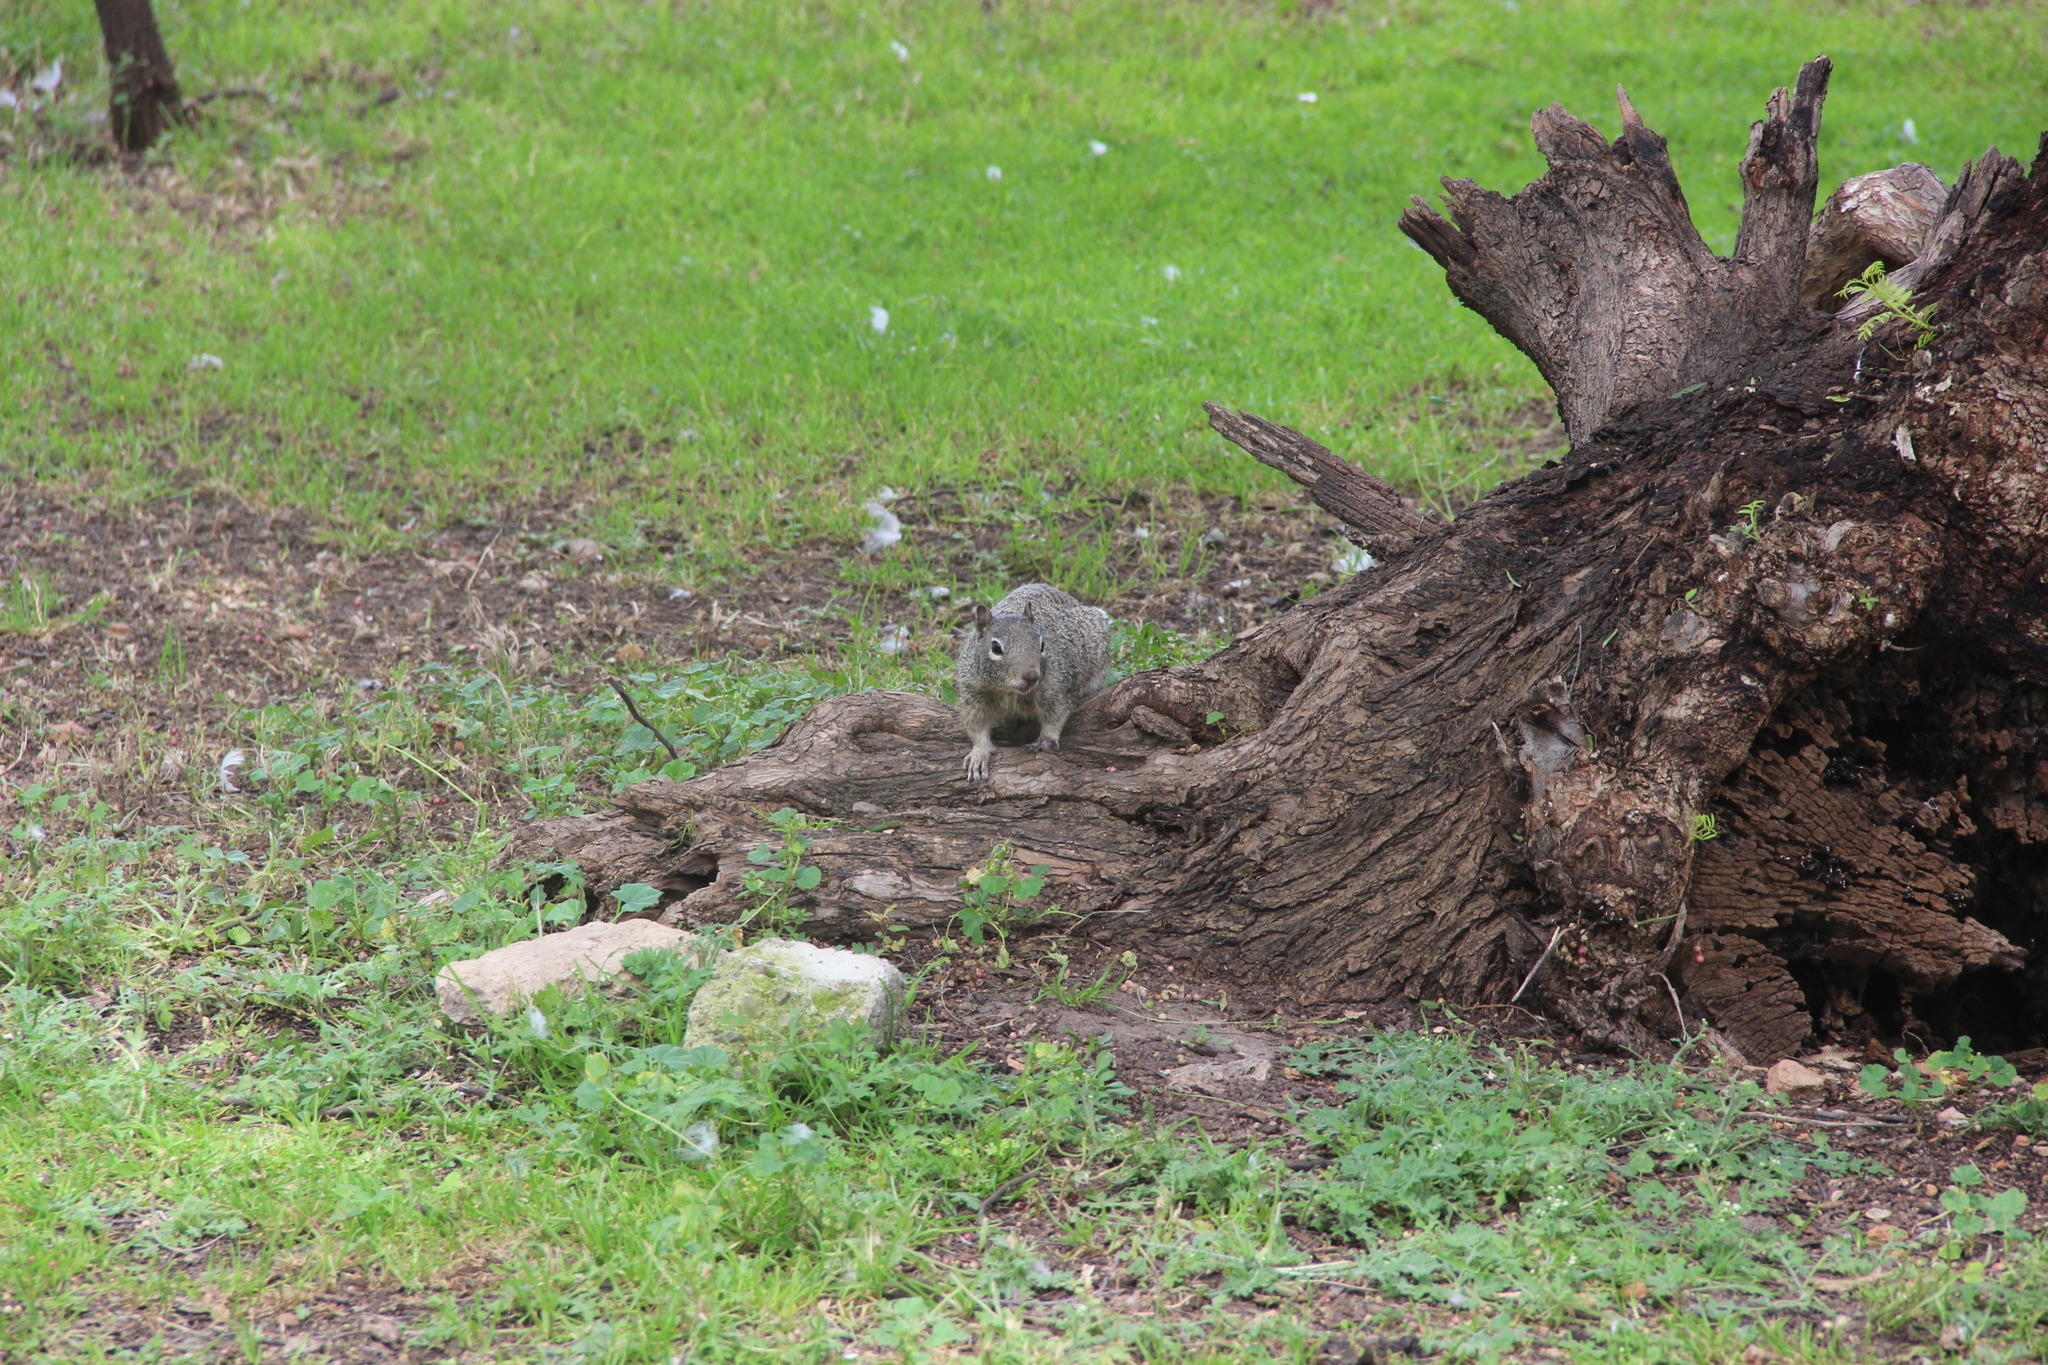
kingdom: Animalia
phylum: Chordata
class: Mammalia
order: Rodentia
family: Sciuridae
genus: Otospermophilus
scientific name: Otospermophilus variegatus
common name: Rock squirrel
